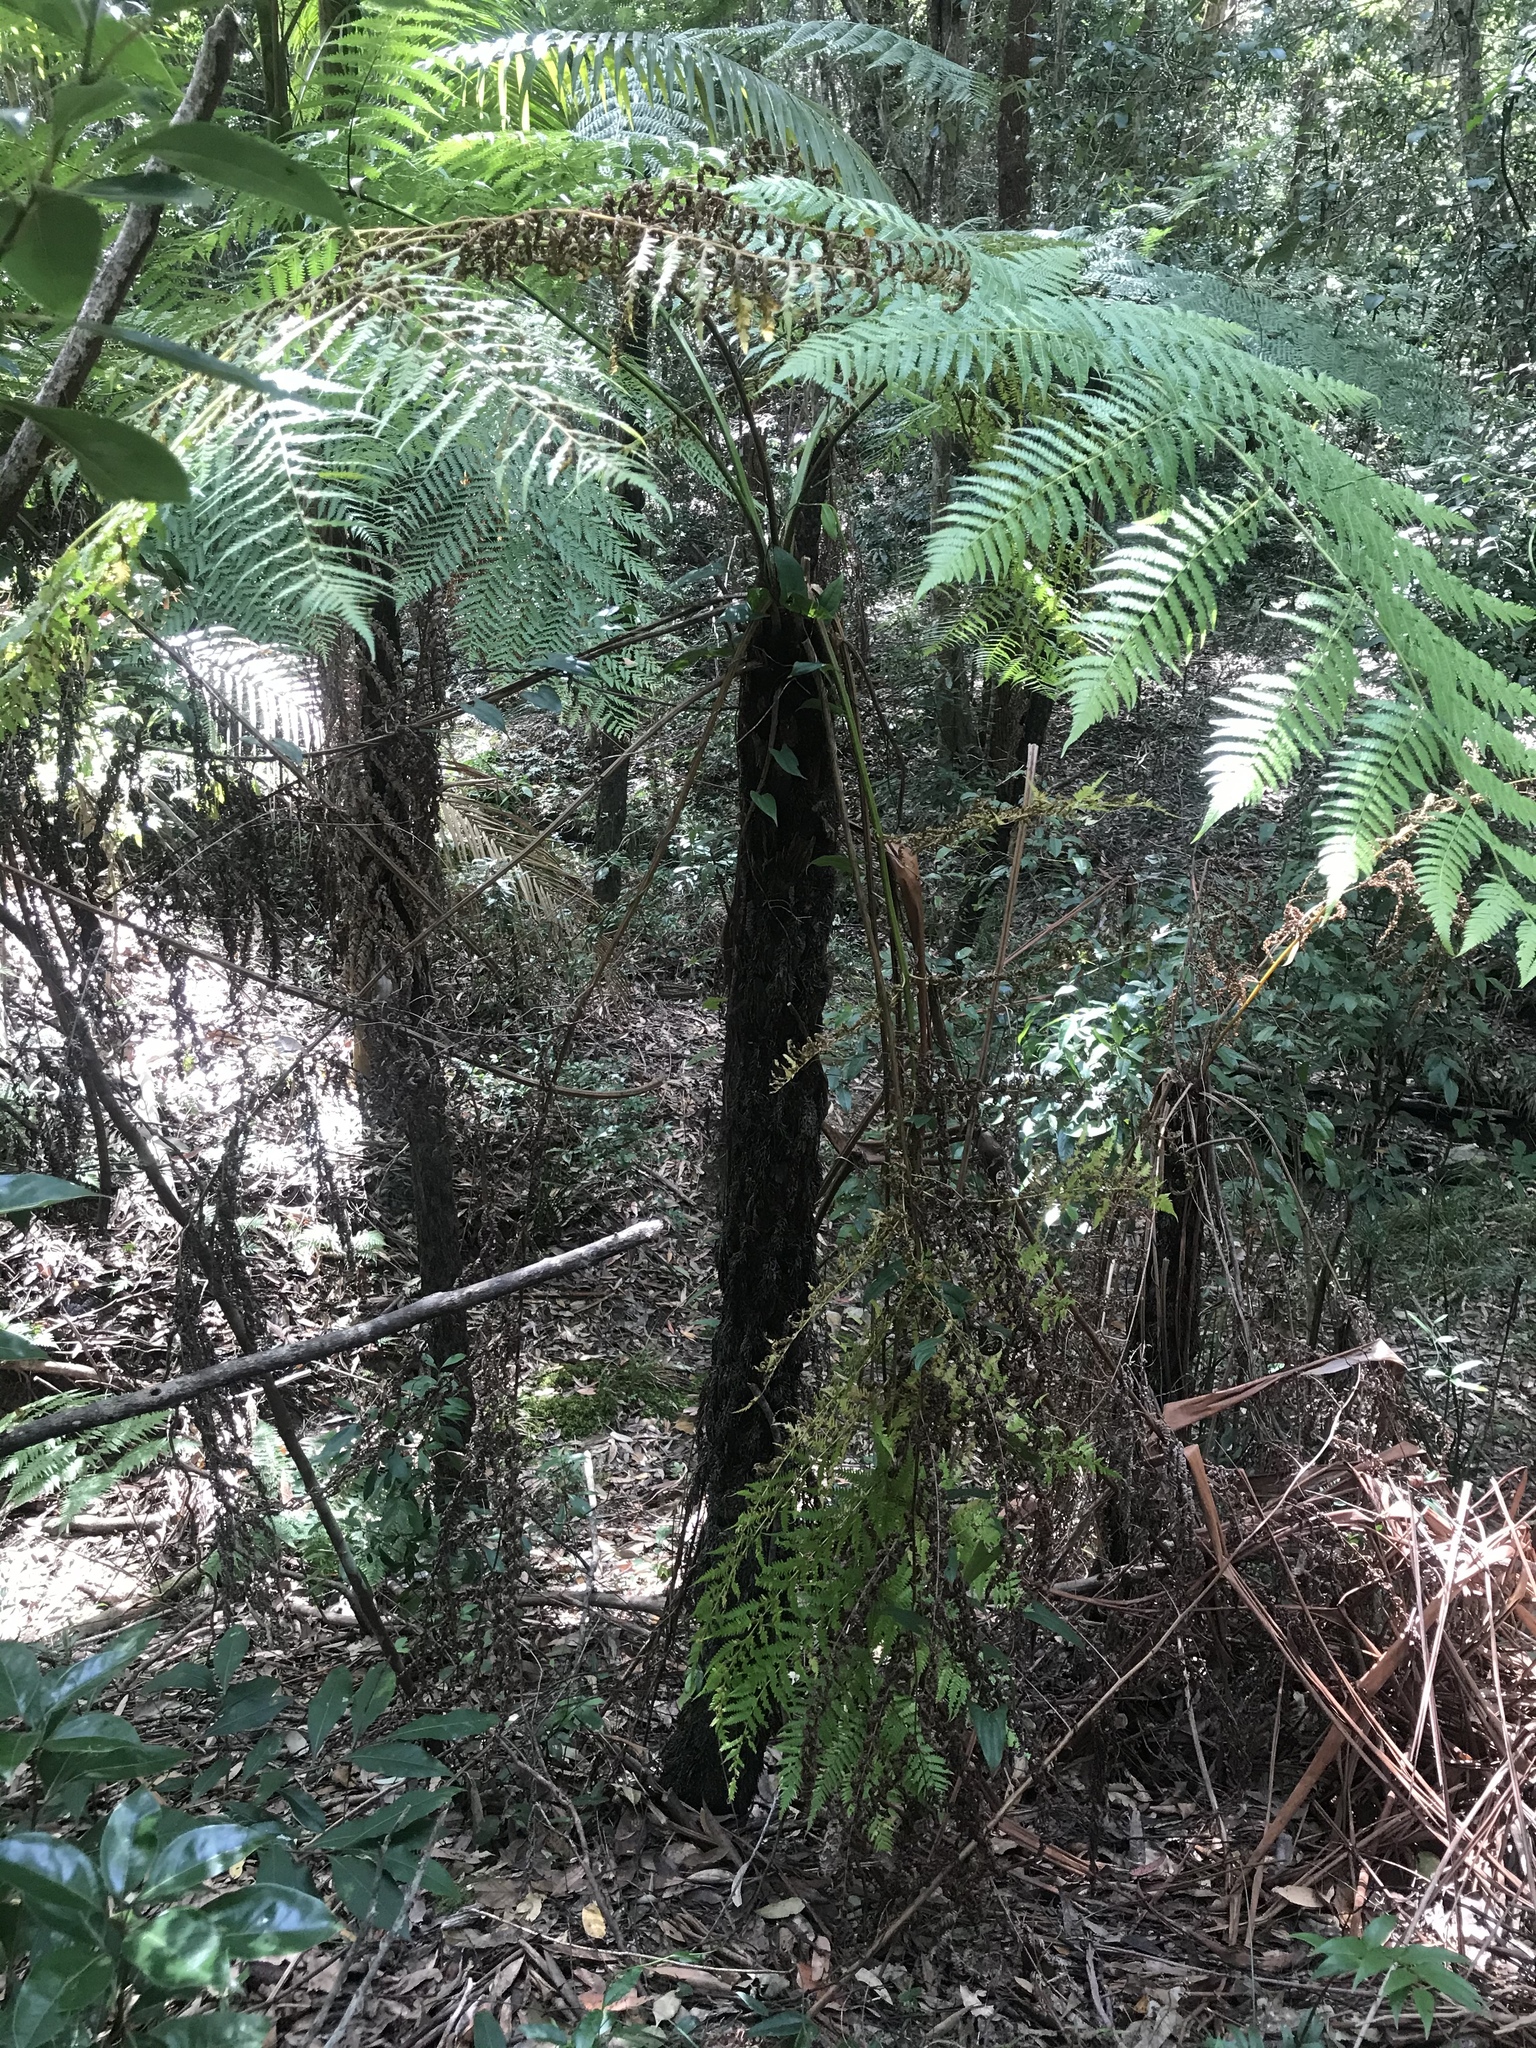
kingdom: Plantae
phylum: Tracheophyta
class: Polypodiopsida
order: Cyatheales
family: Cyatheaceae
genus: Alsophila
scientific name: Alsophila australis
